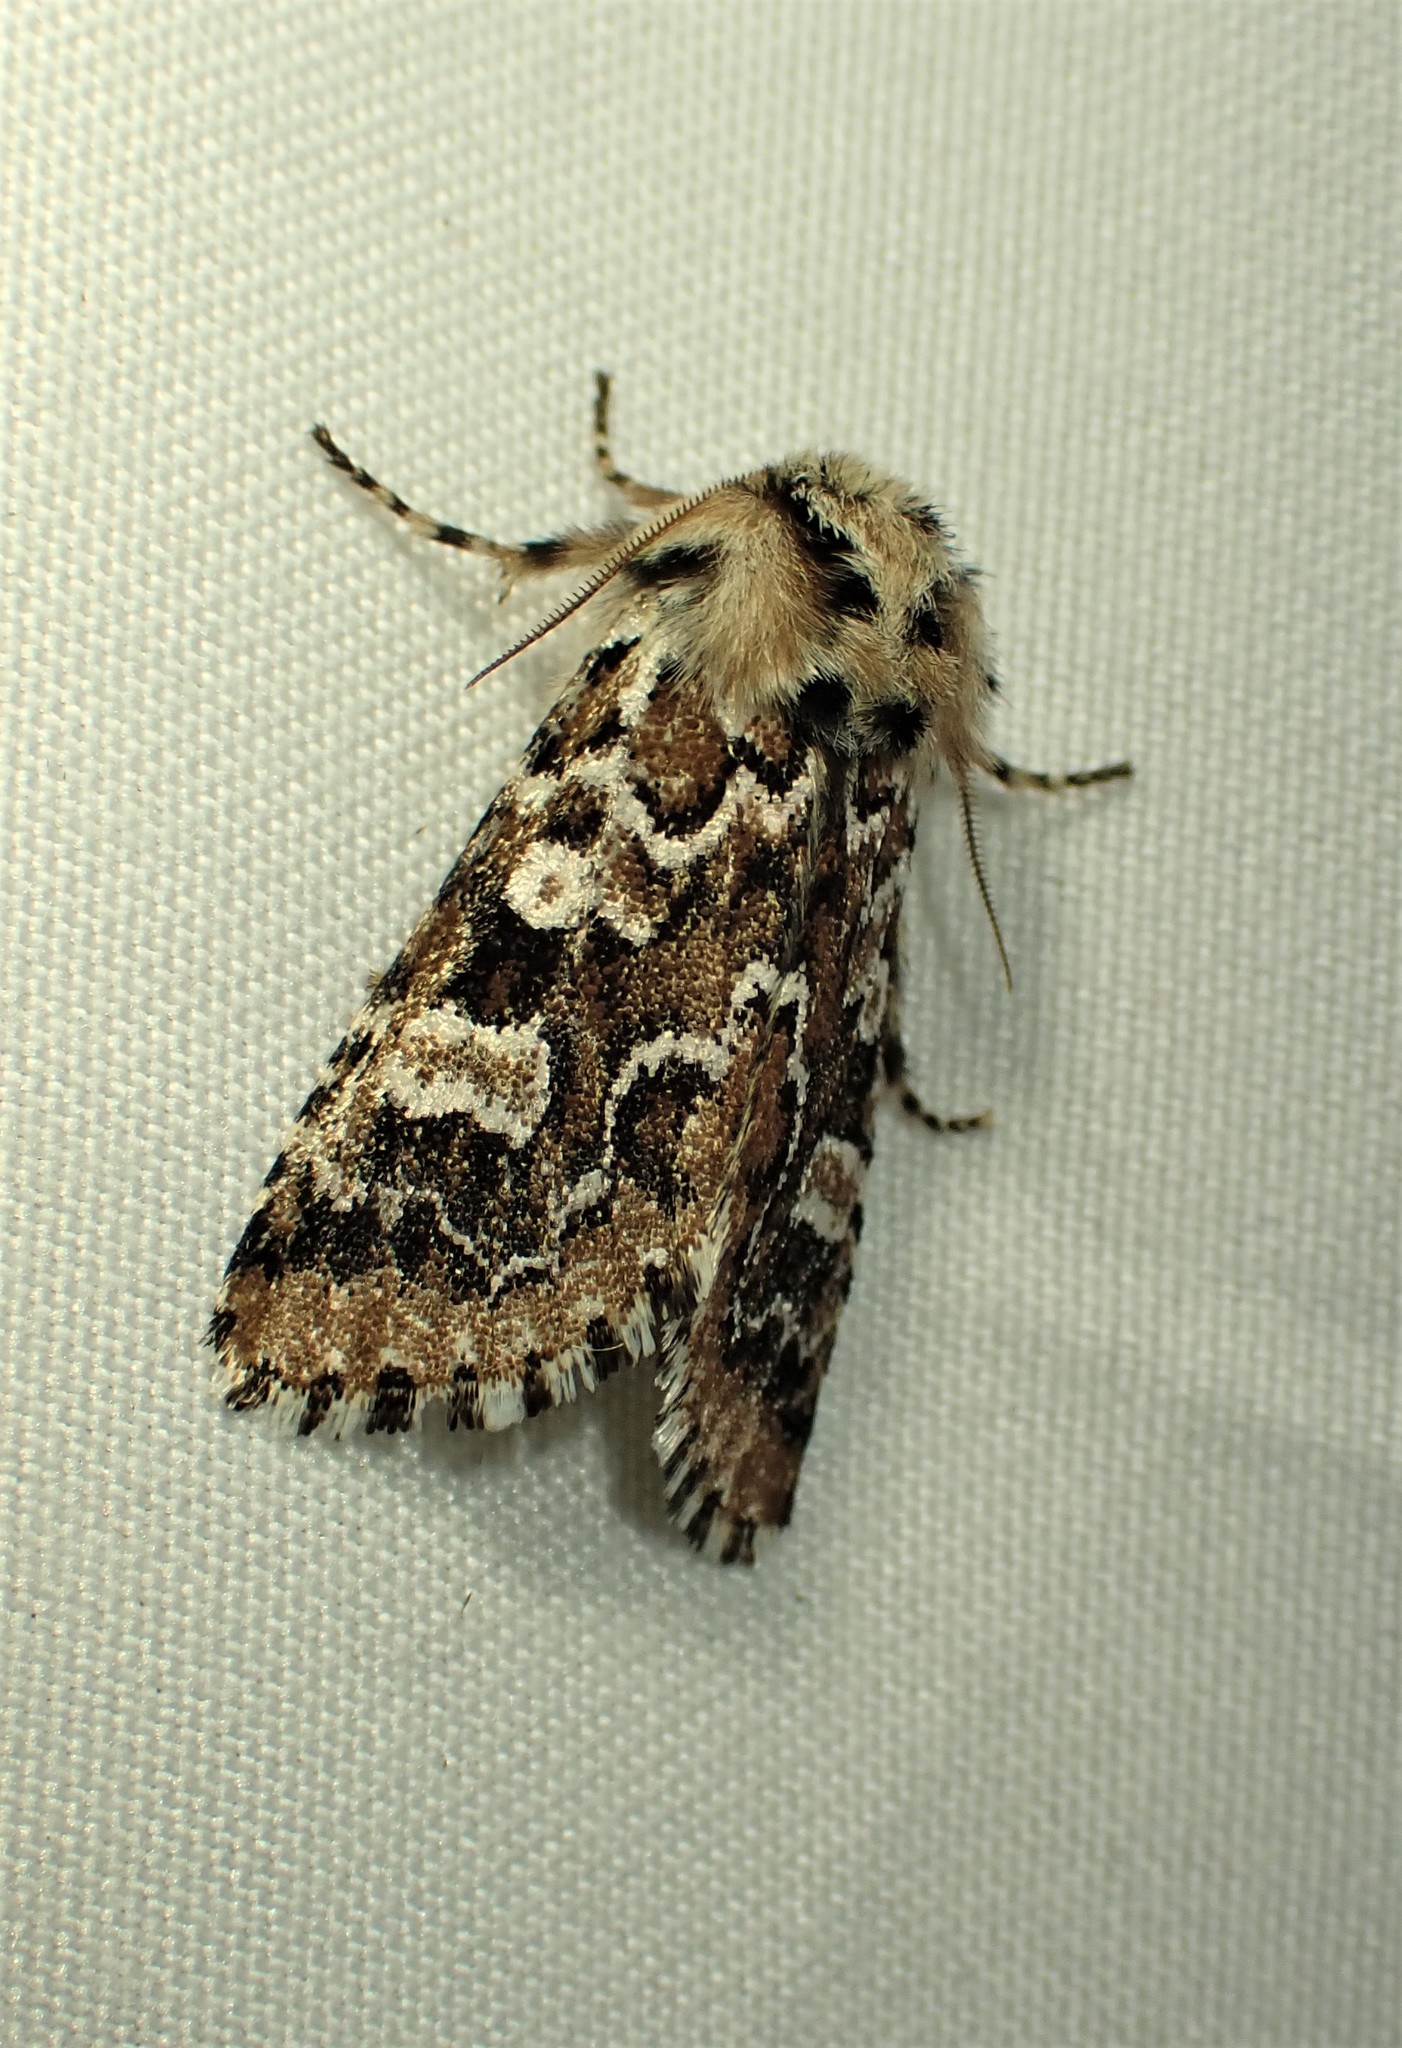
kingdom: Animalia
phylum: Arthropoda
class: Insecta
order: Lepidoptera
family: Noctuidae
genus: Feralia
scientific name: Feralia jocosa
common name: Joker
